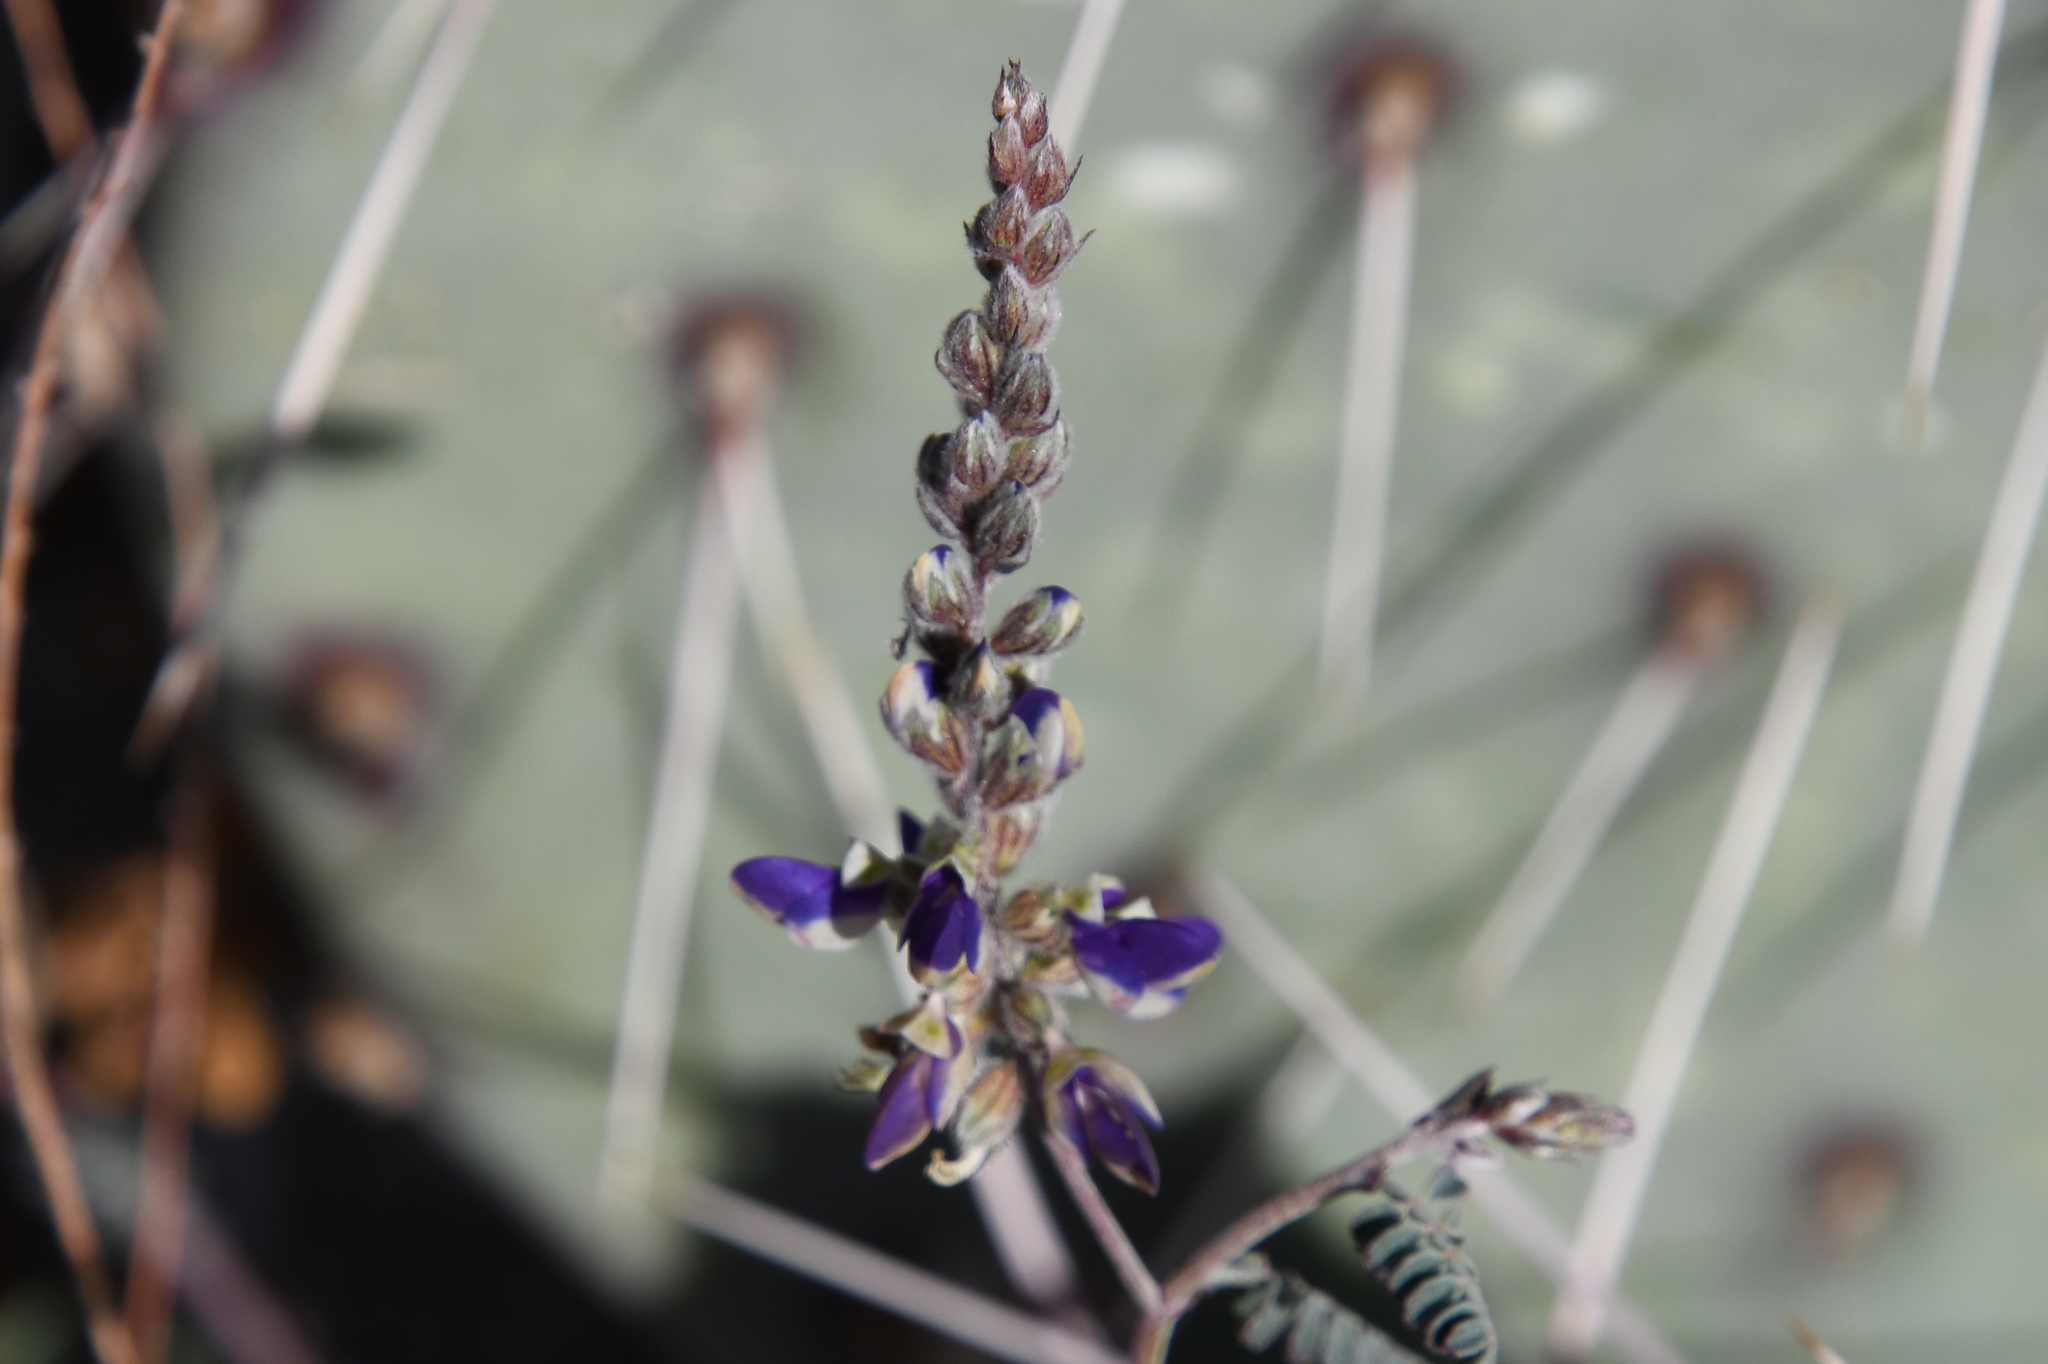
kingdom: Plantae
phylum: Tracheophyta
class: Magnoliopsida
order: Fabales
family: Fabaceae
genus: Marina
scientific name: Marina parryi
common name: Parry's marina
